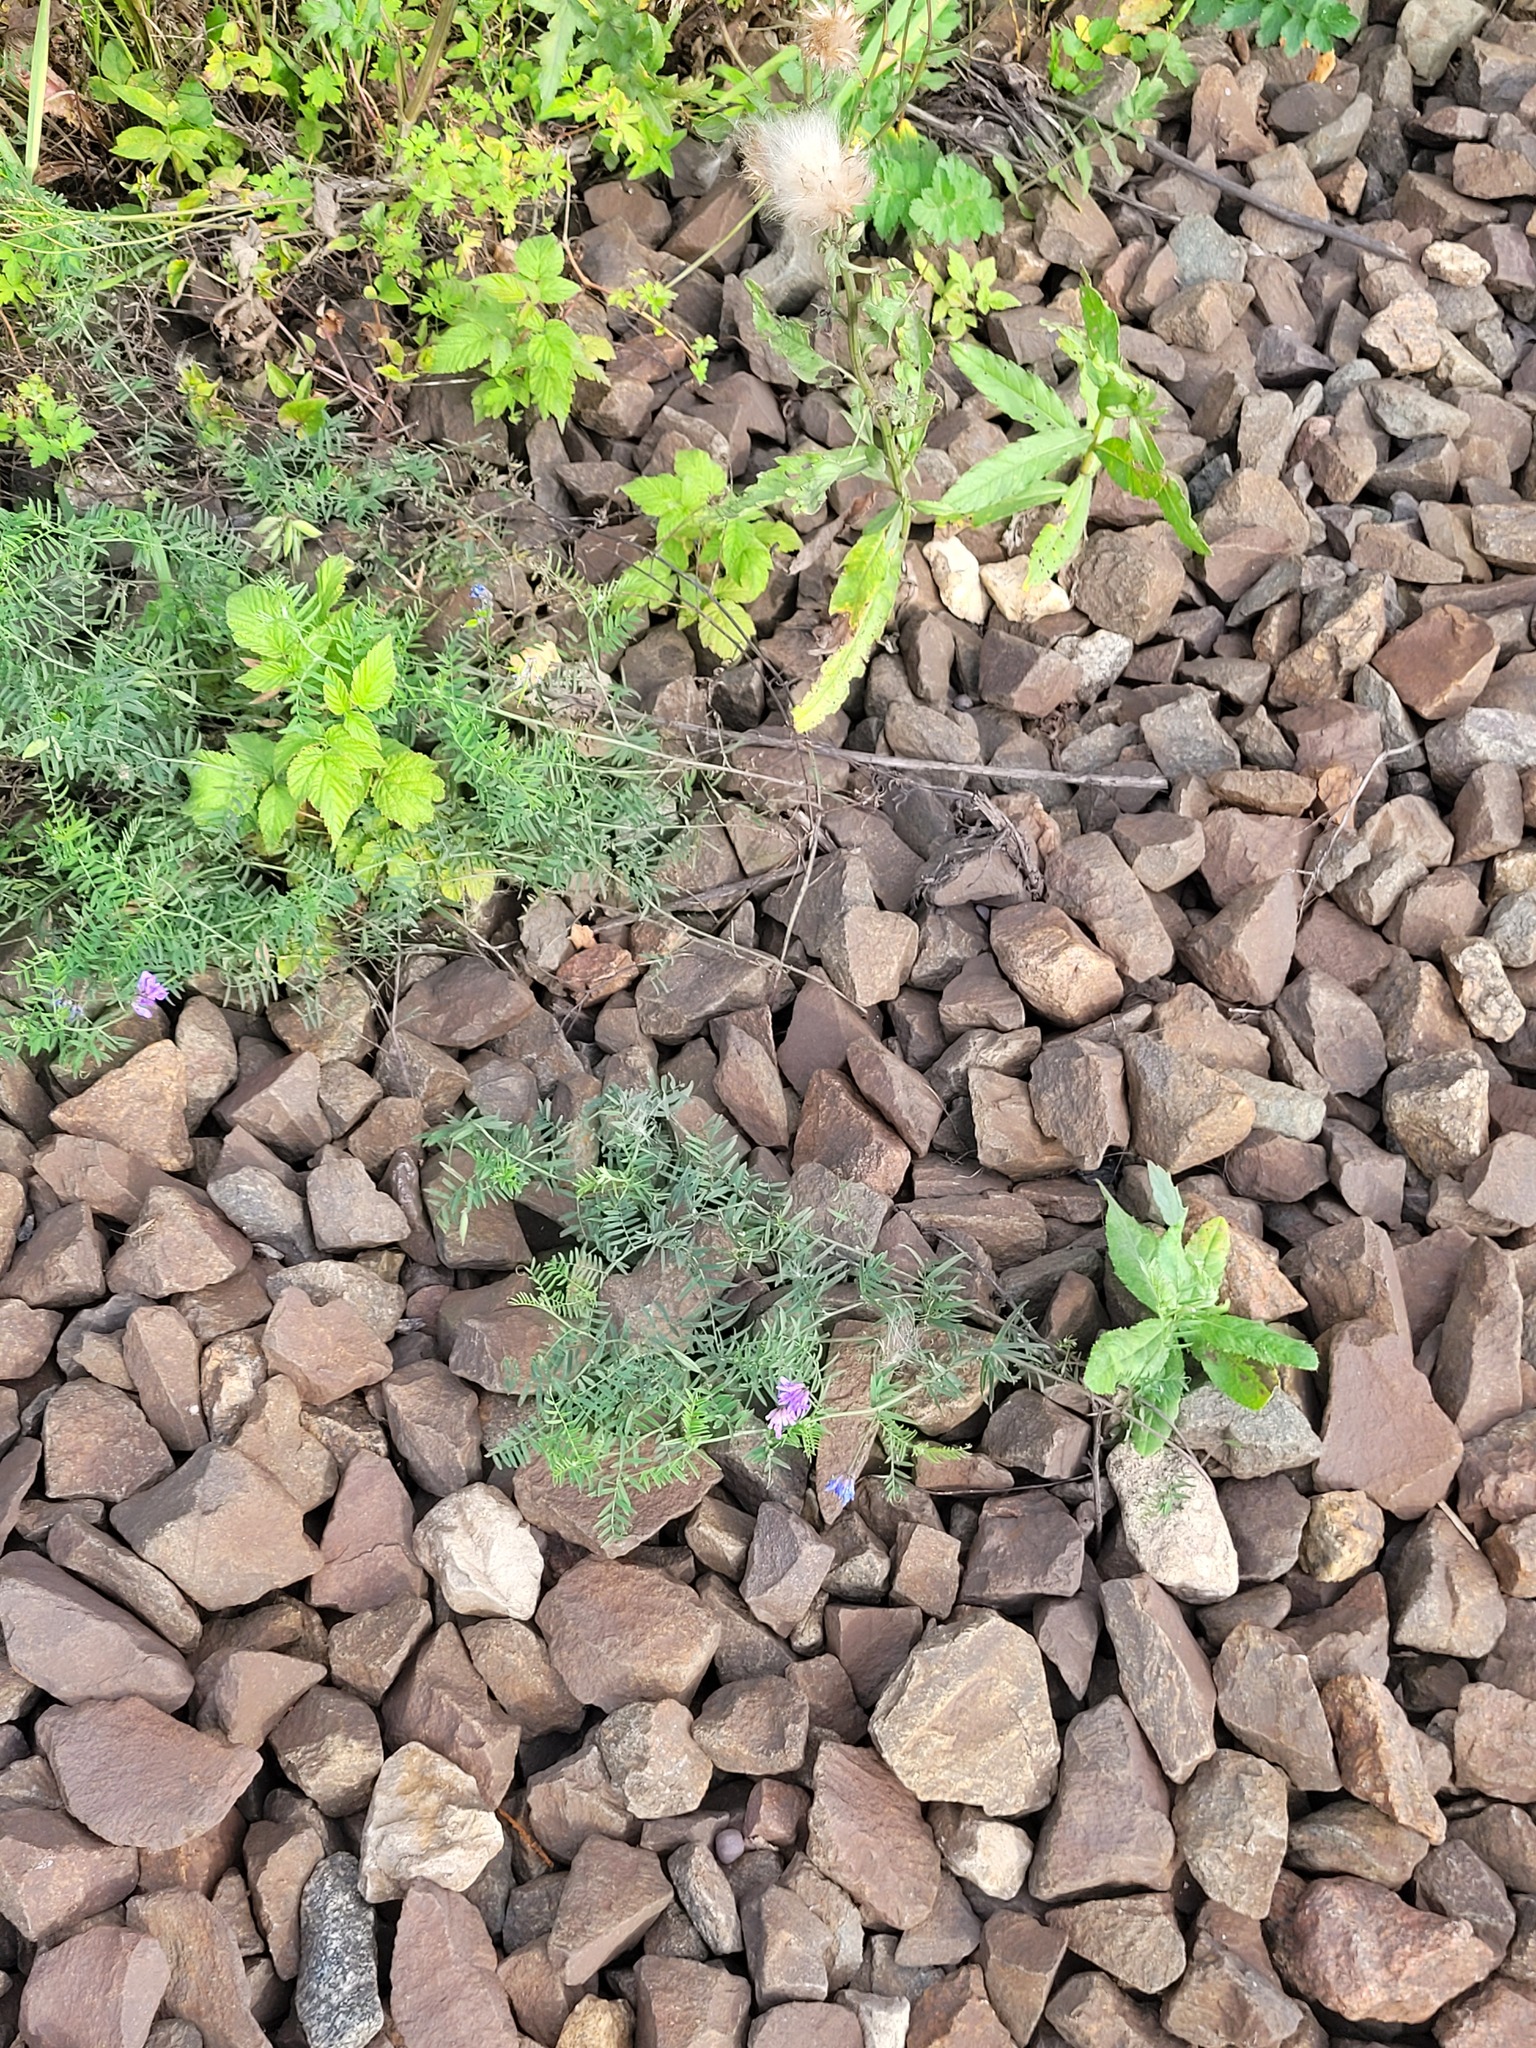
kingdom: Plantae
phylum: Tracheophyta
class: Magnoliopsida
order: Fabales
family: Fabaceae
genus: Vicia
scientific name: Vicia cracca
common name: Bird vetch
